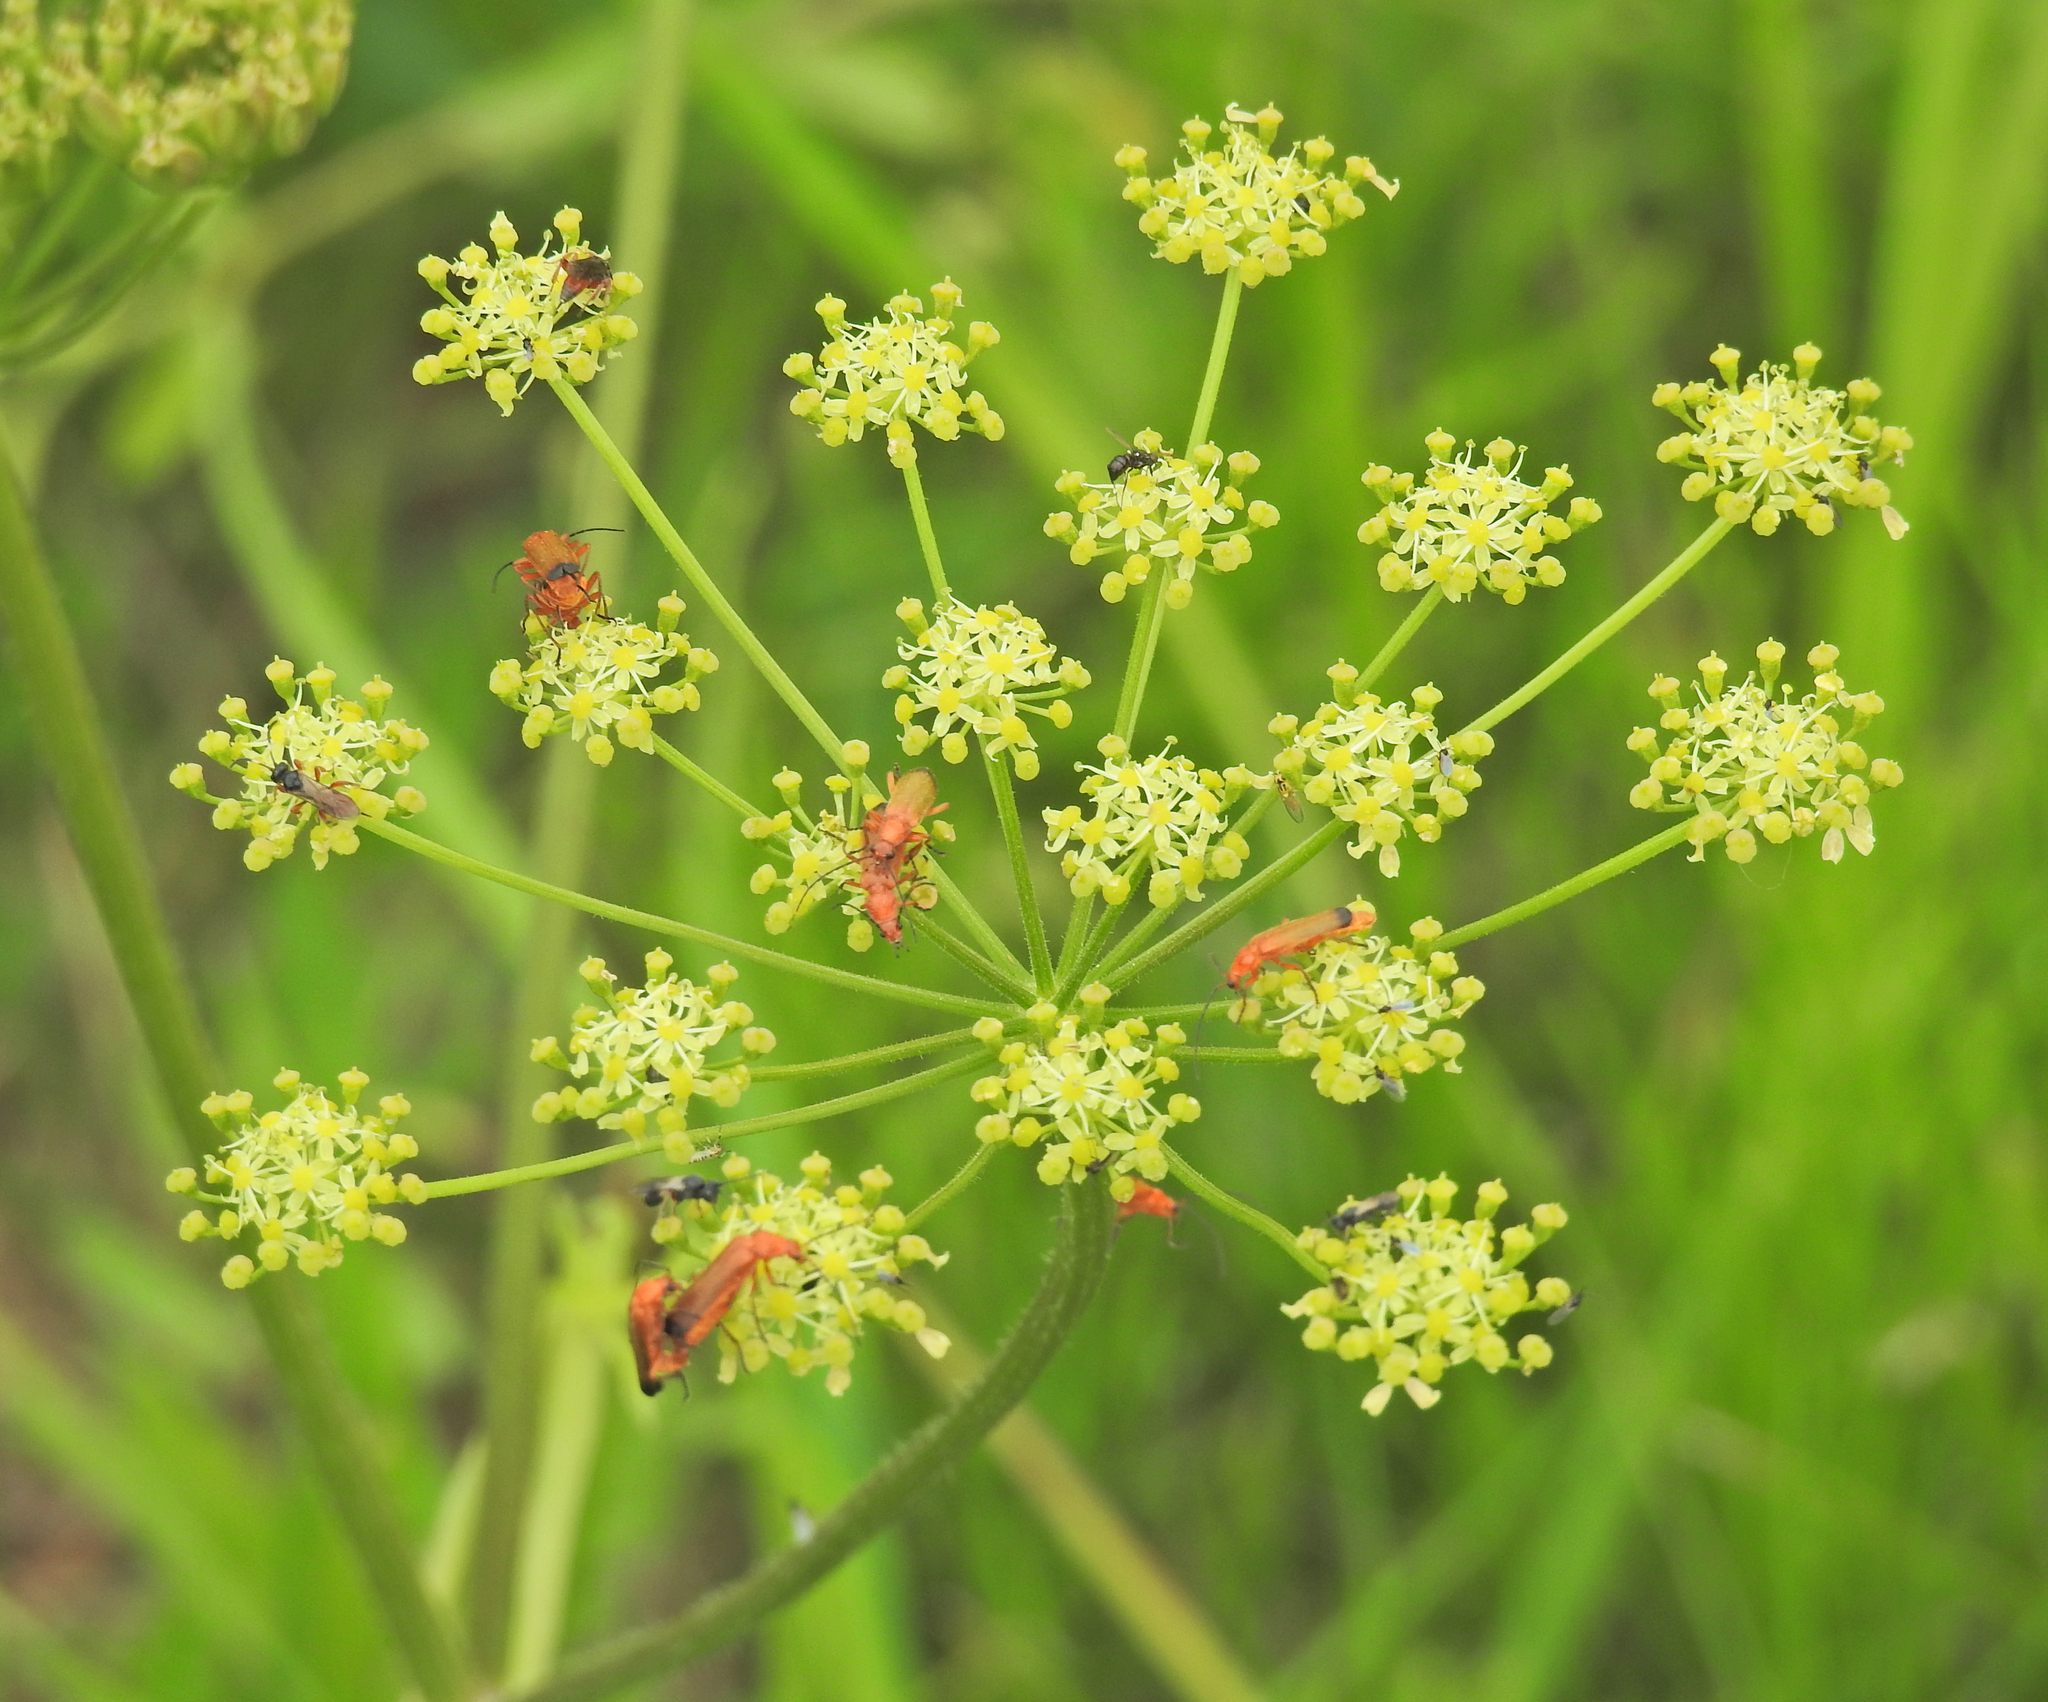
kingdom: Animalia
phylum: Arthropoda
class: Insecta
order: Coleoptera
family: Cantharidae
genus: Rhagonycha
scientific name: Rhagonycha fulva
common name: Common red soldier beetle
